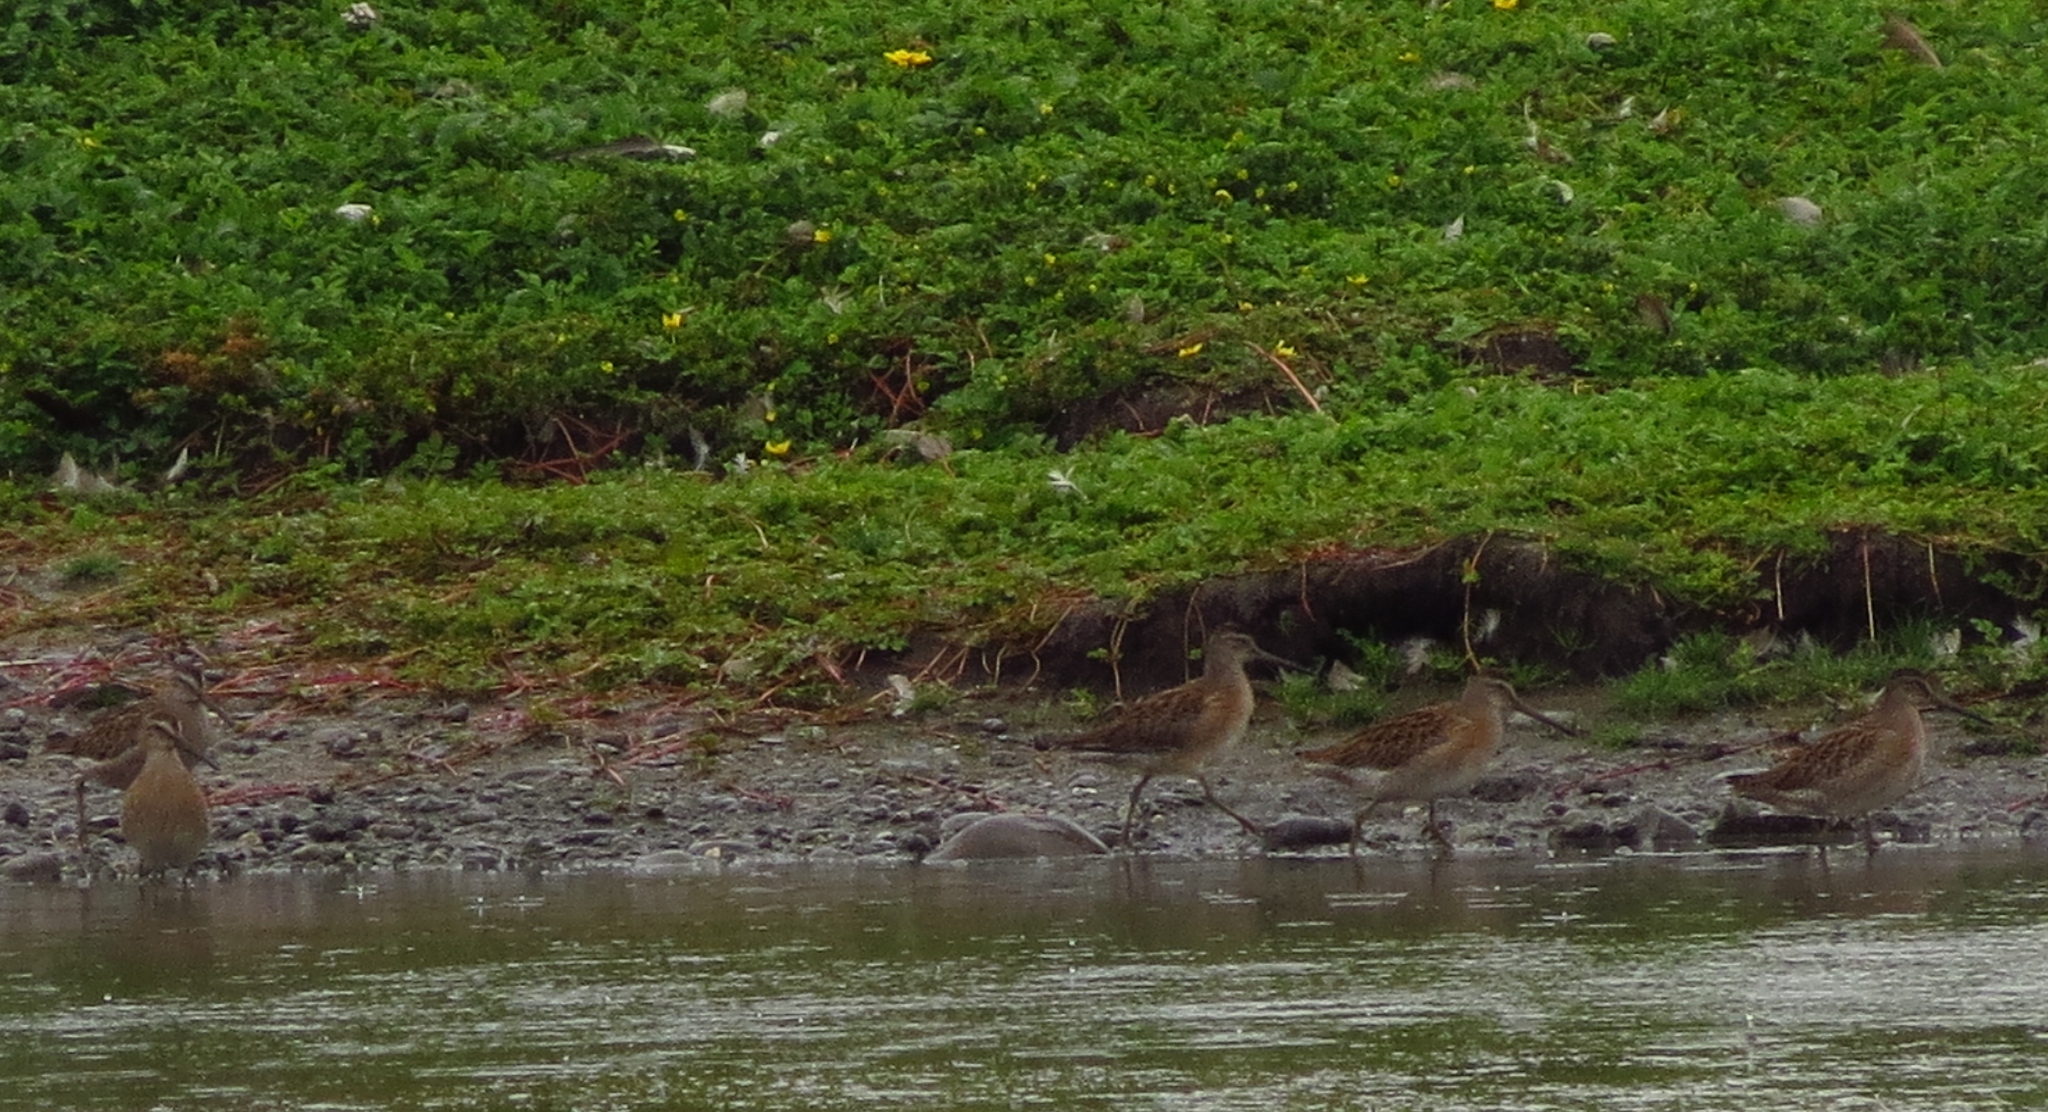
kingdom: Animalia
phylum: Chordata
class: Aves
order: Charadriiformes
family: Scolopacidae
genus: Limnodromus
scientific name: Limnodromus griseus
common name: Short-billed dowitcher
